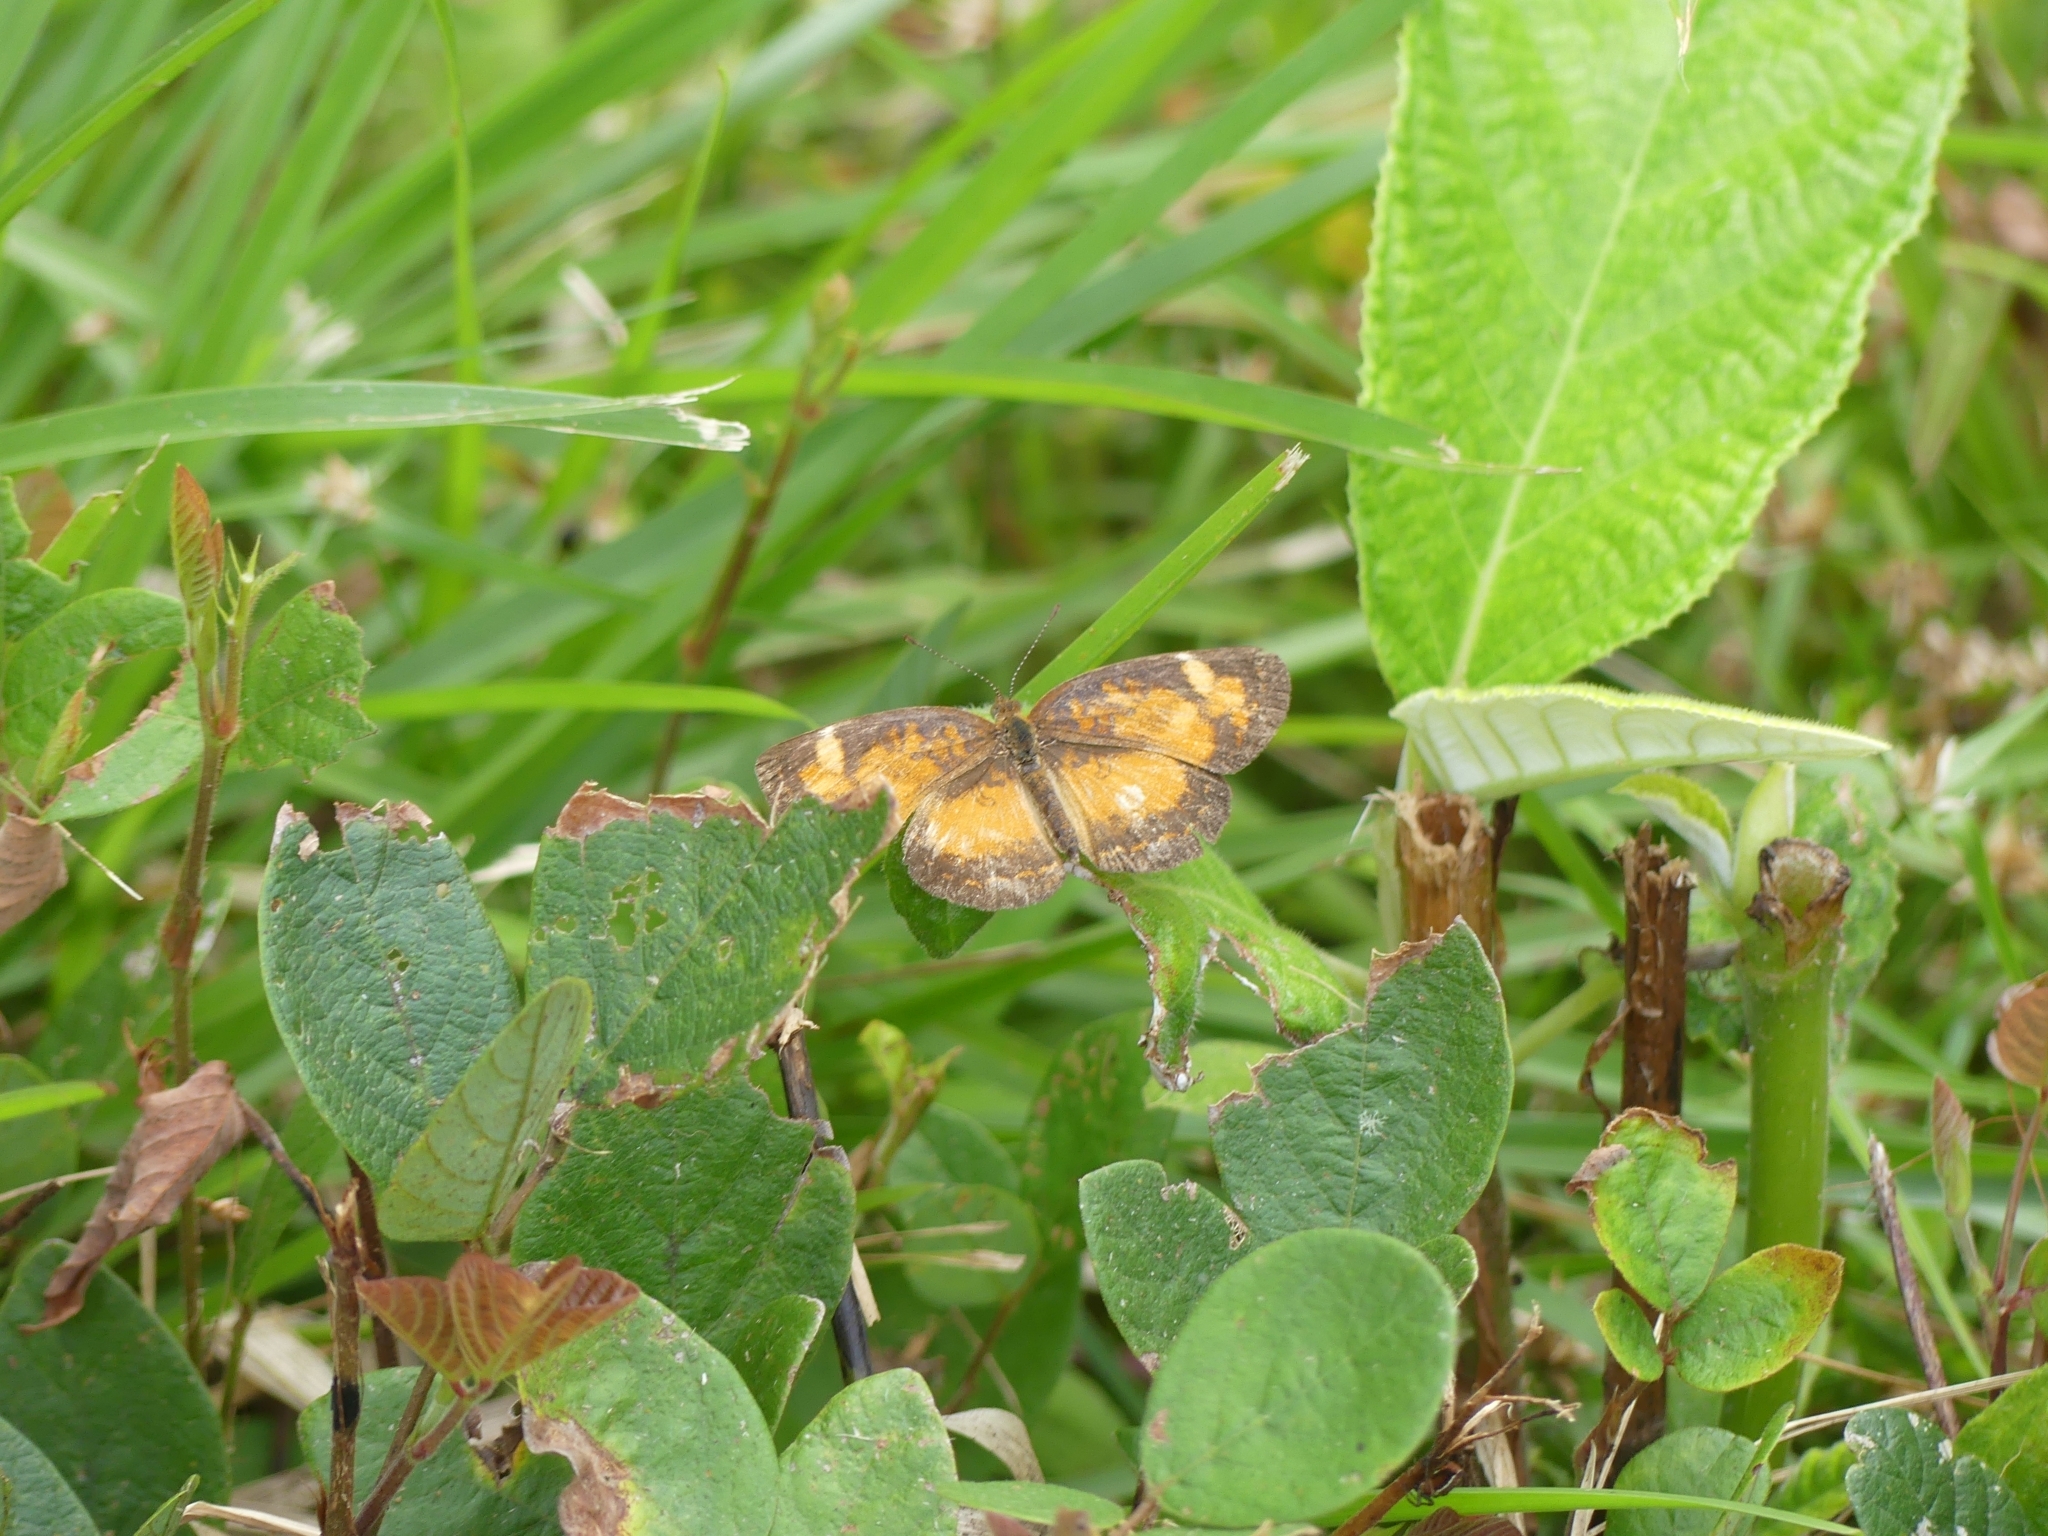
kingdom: Animalia
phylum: Arthropoda
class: Insecta
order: Lepidoptera
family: Nymphalidae
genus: Ortilia
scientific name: Ortilia liriope
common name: Brazilian crescent
